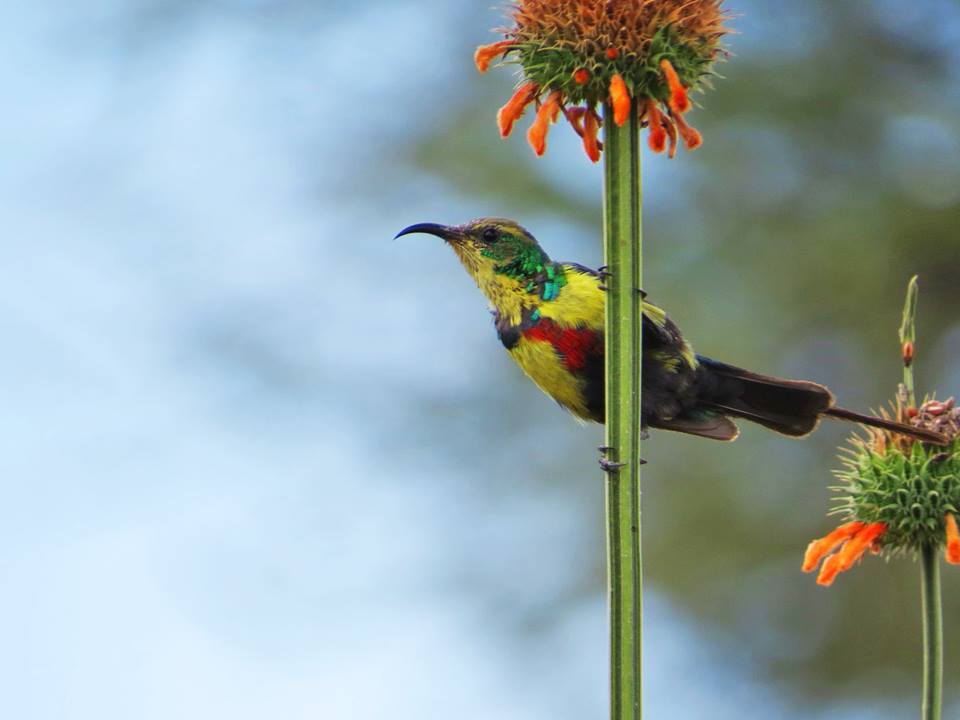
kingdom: Animalia
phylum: Chordata
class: Aves
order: Passeriformes
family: Nectariniidae
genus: Cinnyris
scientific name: Cinnyris pulchellus
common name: Beautiful sunbird
